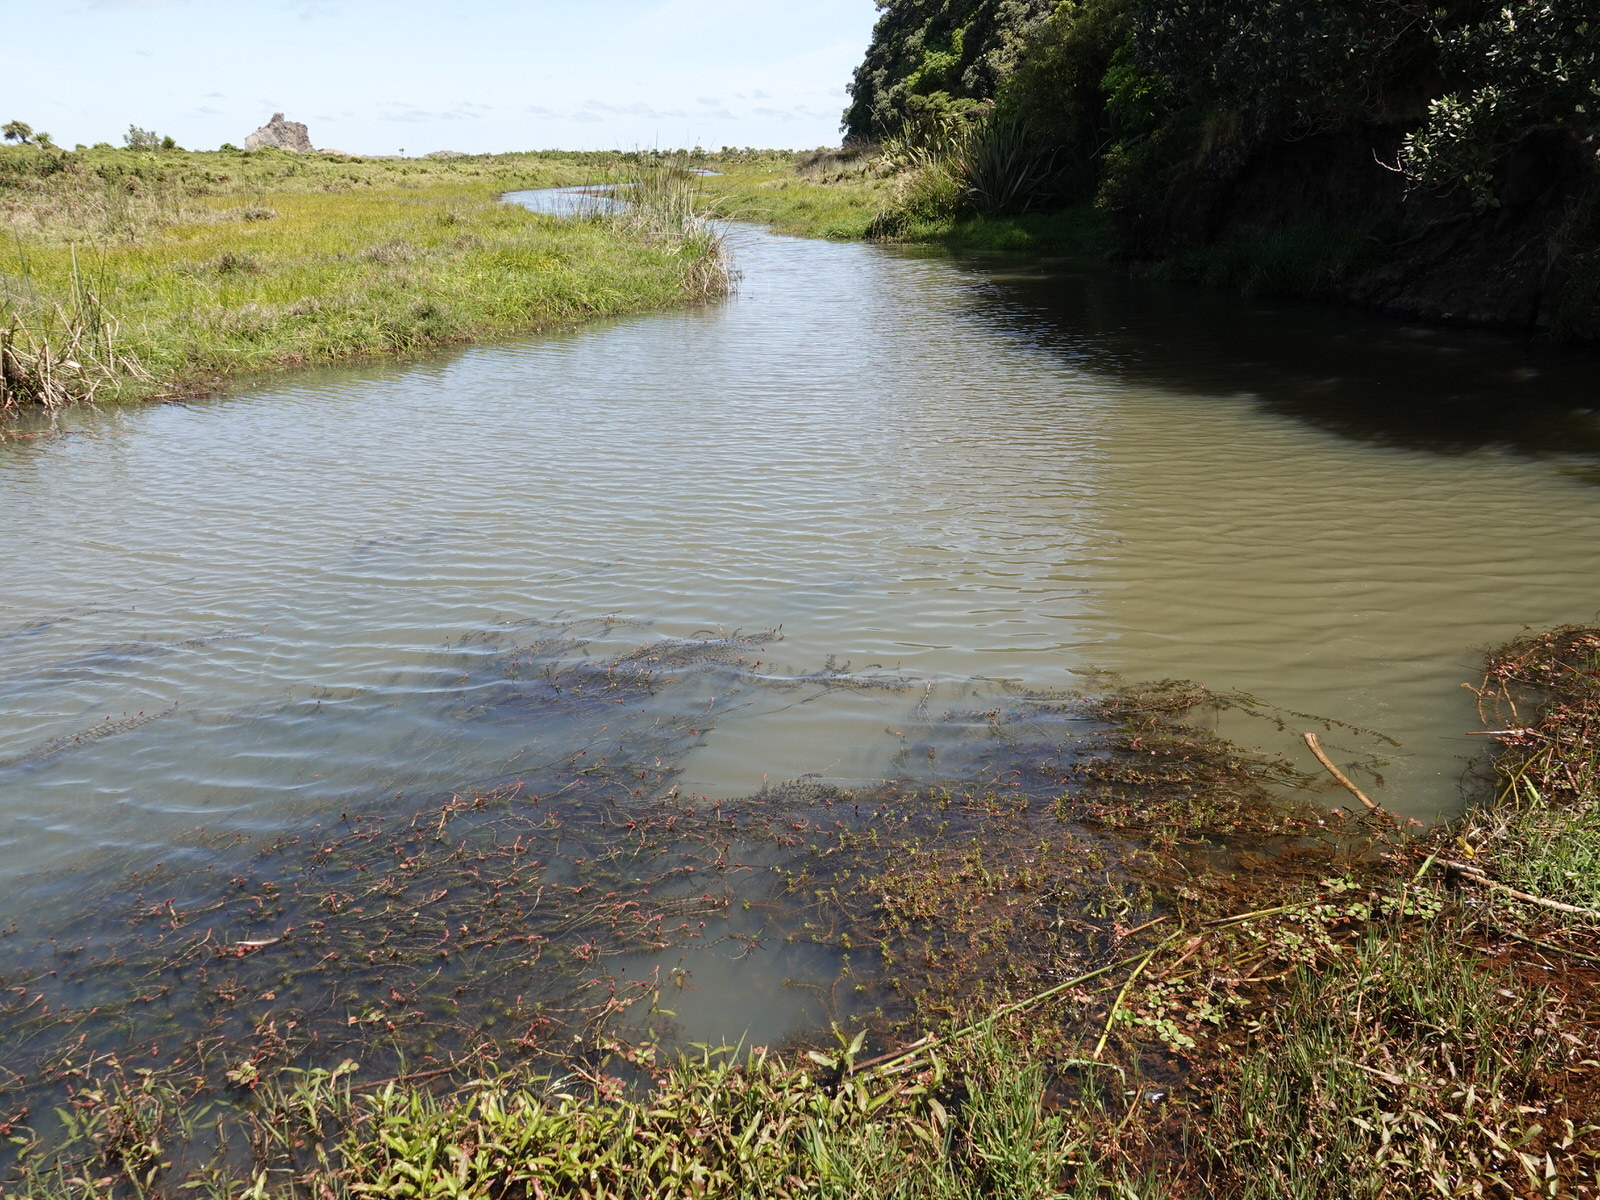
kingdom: Plantae
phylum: Tracheophyta
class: Magnoliopsida
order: Saxifragales
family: Haloragaceae
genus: Myriophyllum
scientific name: Myriophyllum propinquum
